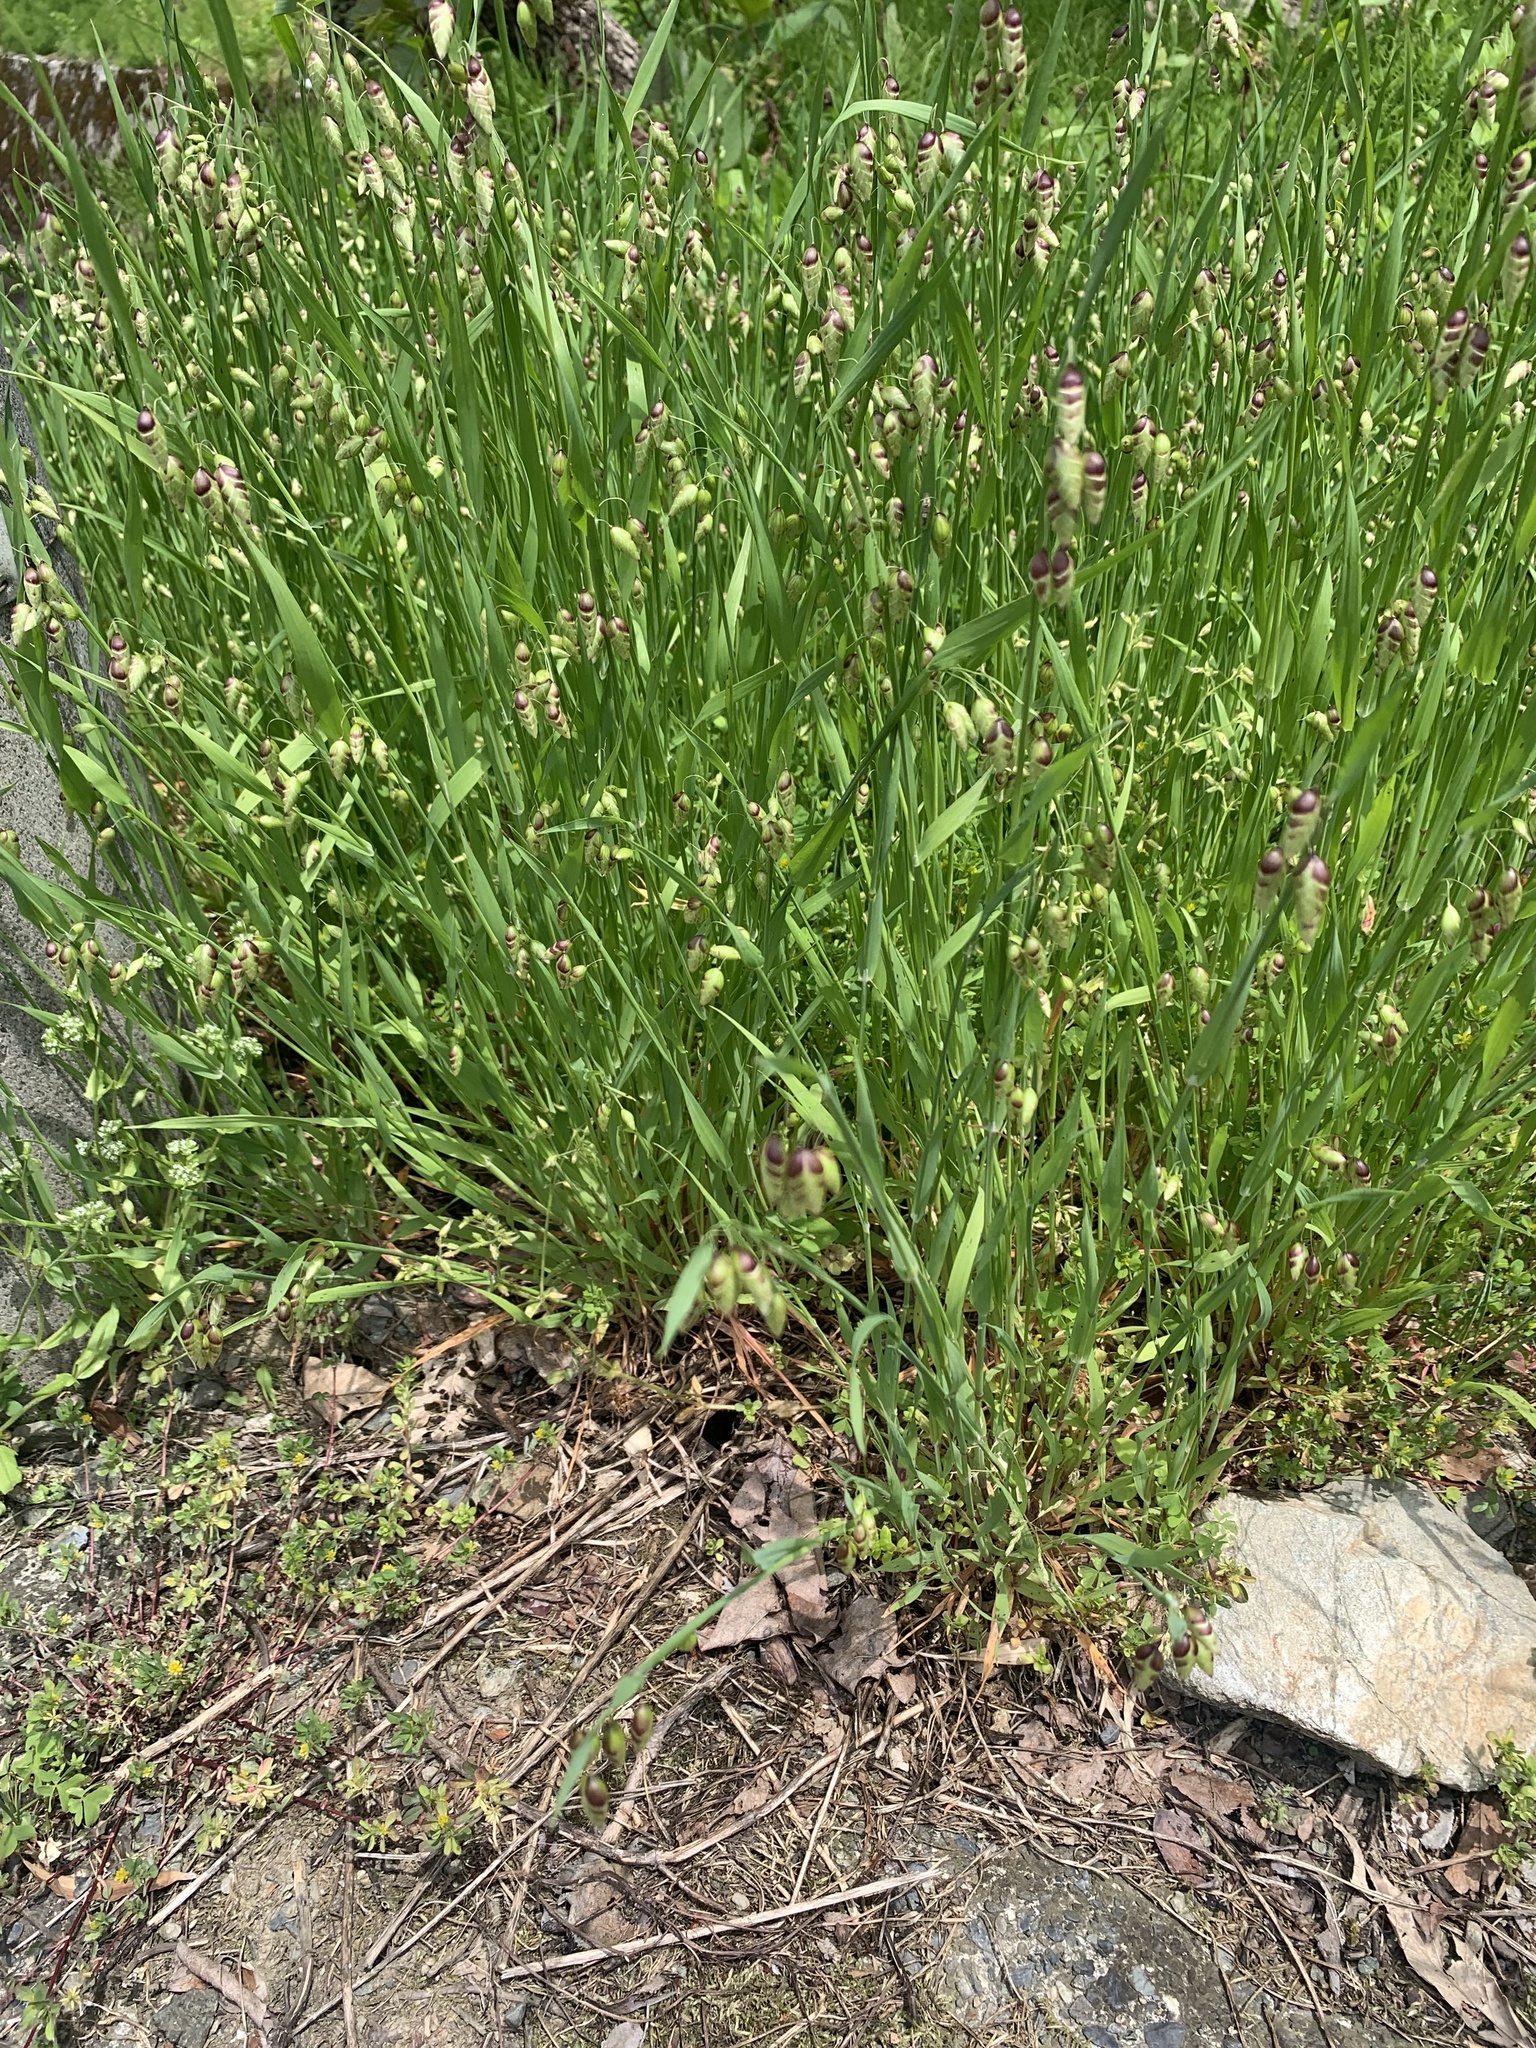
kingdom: Plantae
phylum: Tracheophyta
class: Liliopsida
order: Poales
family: Poaceae
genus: Briza
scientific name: Briza maxima
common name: Big quakinggrass
